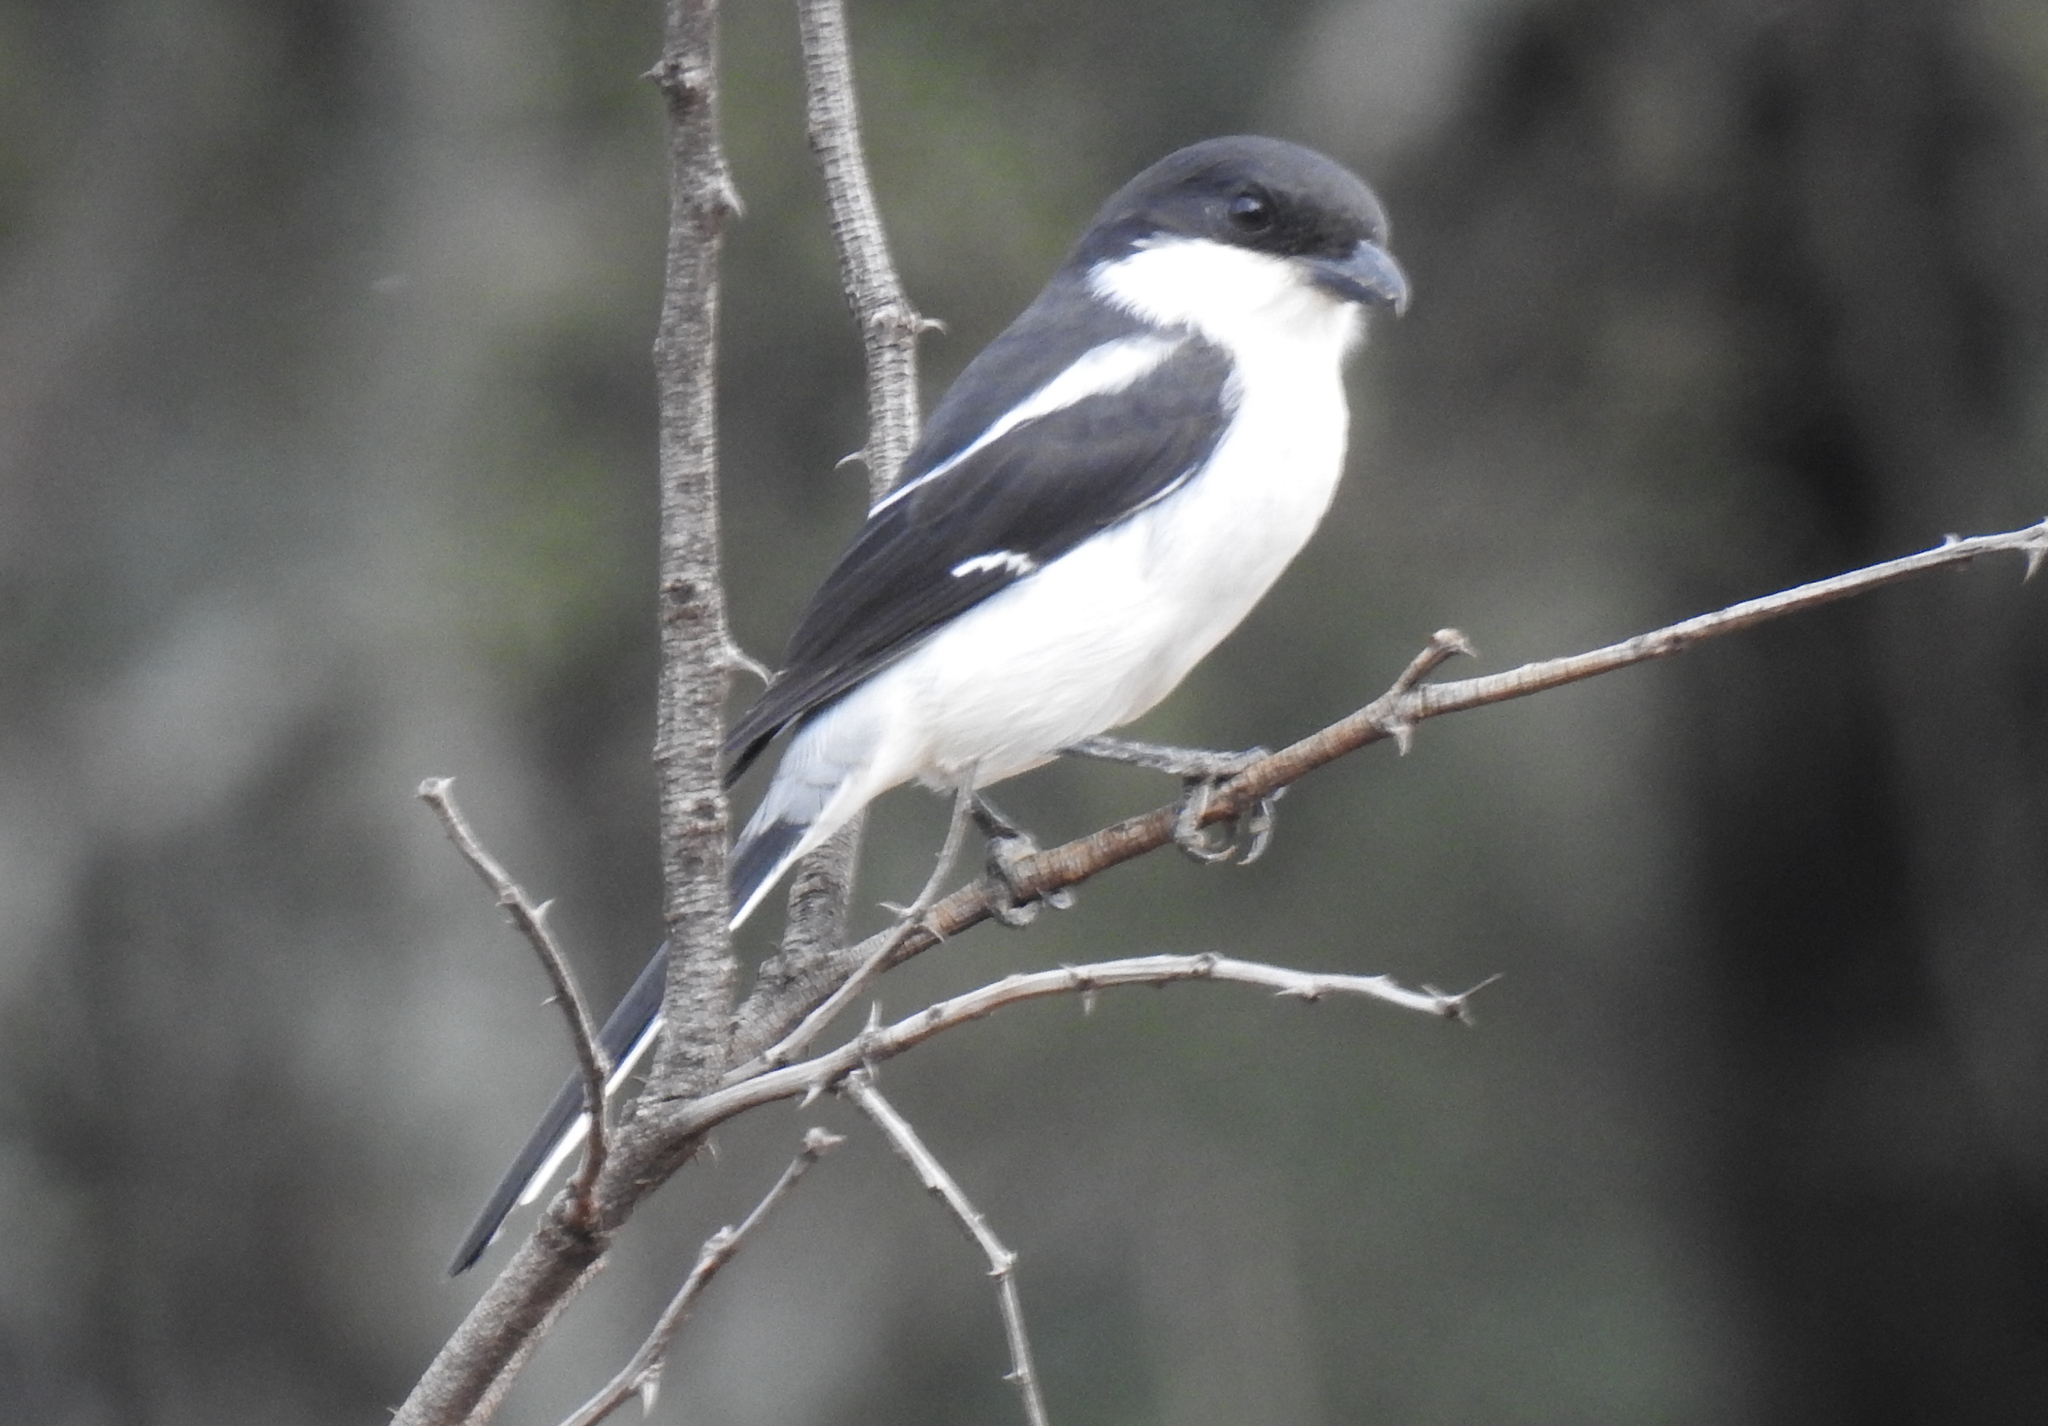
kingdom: Animalia
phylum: Chordata
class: Aves
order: Passeriformes
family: Laniidae
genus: Lanius
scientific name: Lanius collaris
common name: Southern fiscal
